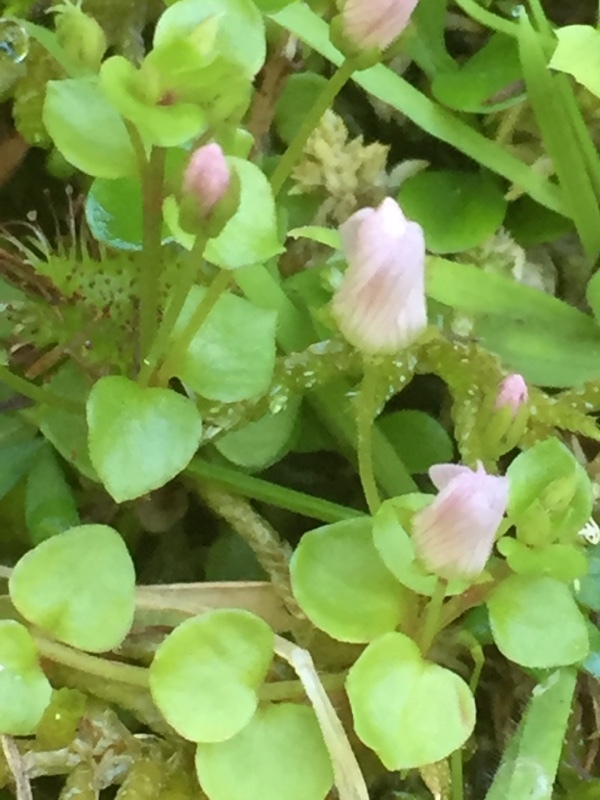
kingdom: Plantae
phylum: Tracheophyta
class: Magnoliopsida
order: Ericales
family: Primulaceae
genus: Lysimachia
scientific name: Lysimachia tenella
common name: European bog pimpernel
